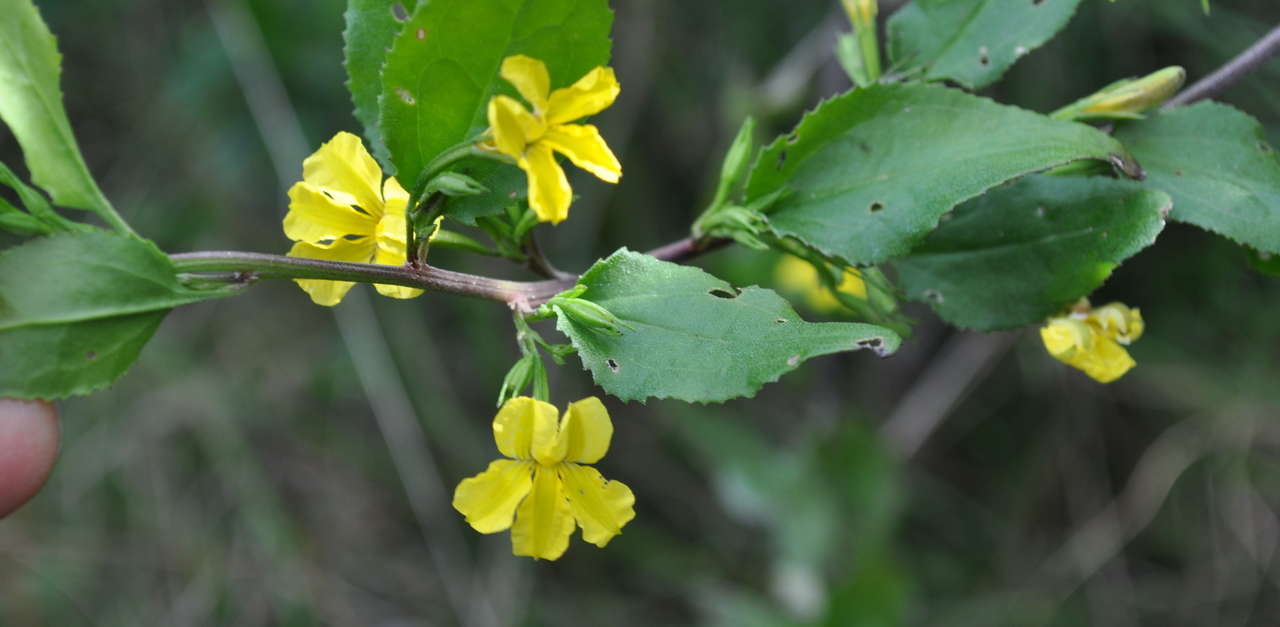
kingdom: Plantae
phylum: Tracheophyta
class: Magnoliopsida
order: Asterales
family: Goodeniaceae
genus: Goodenia
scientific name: Goodenia ovata
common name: Hop goodenia
